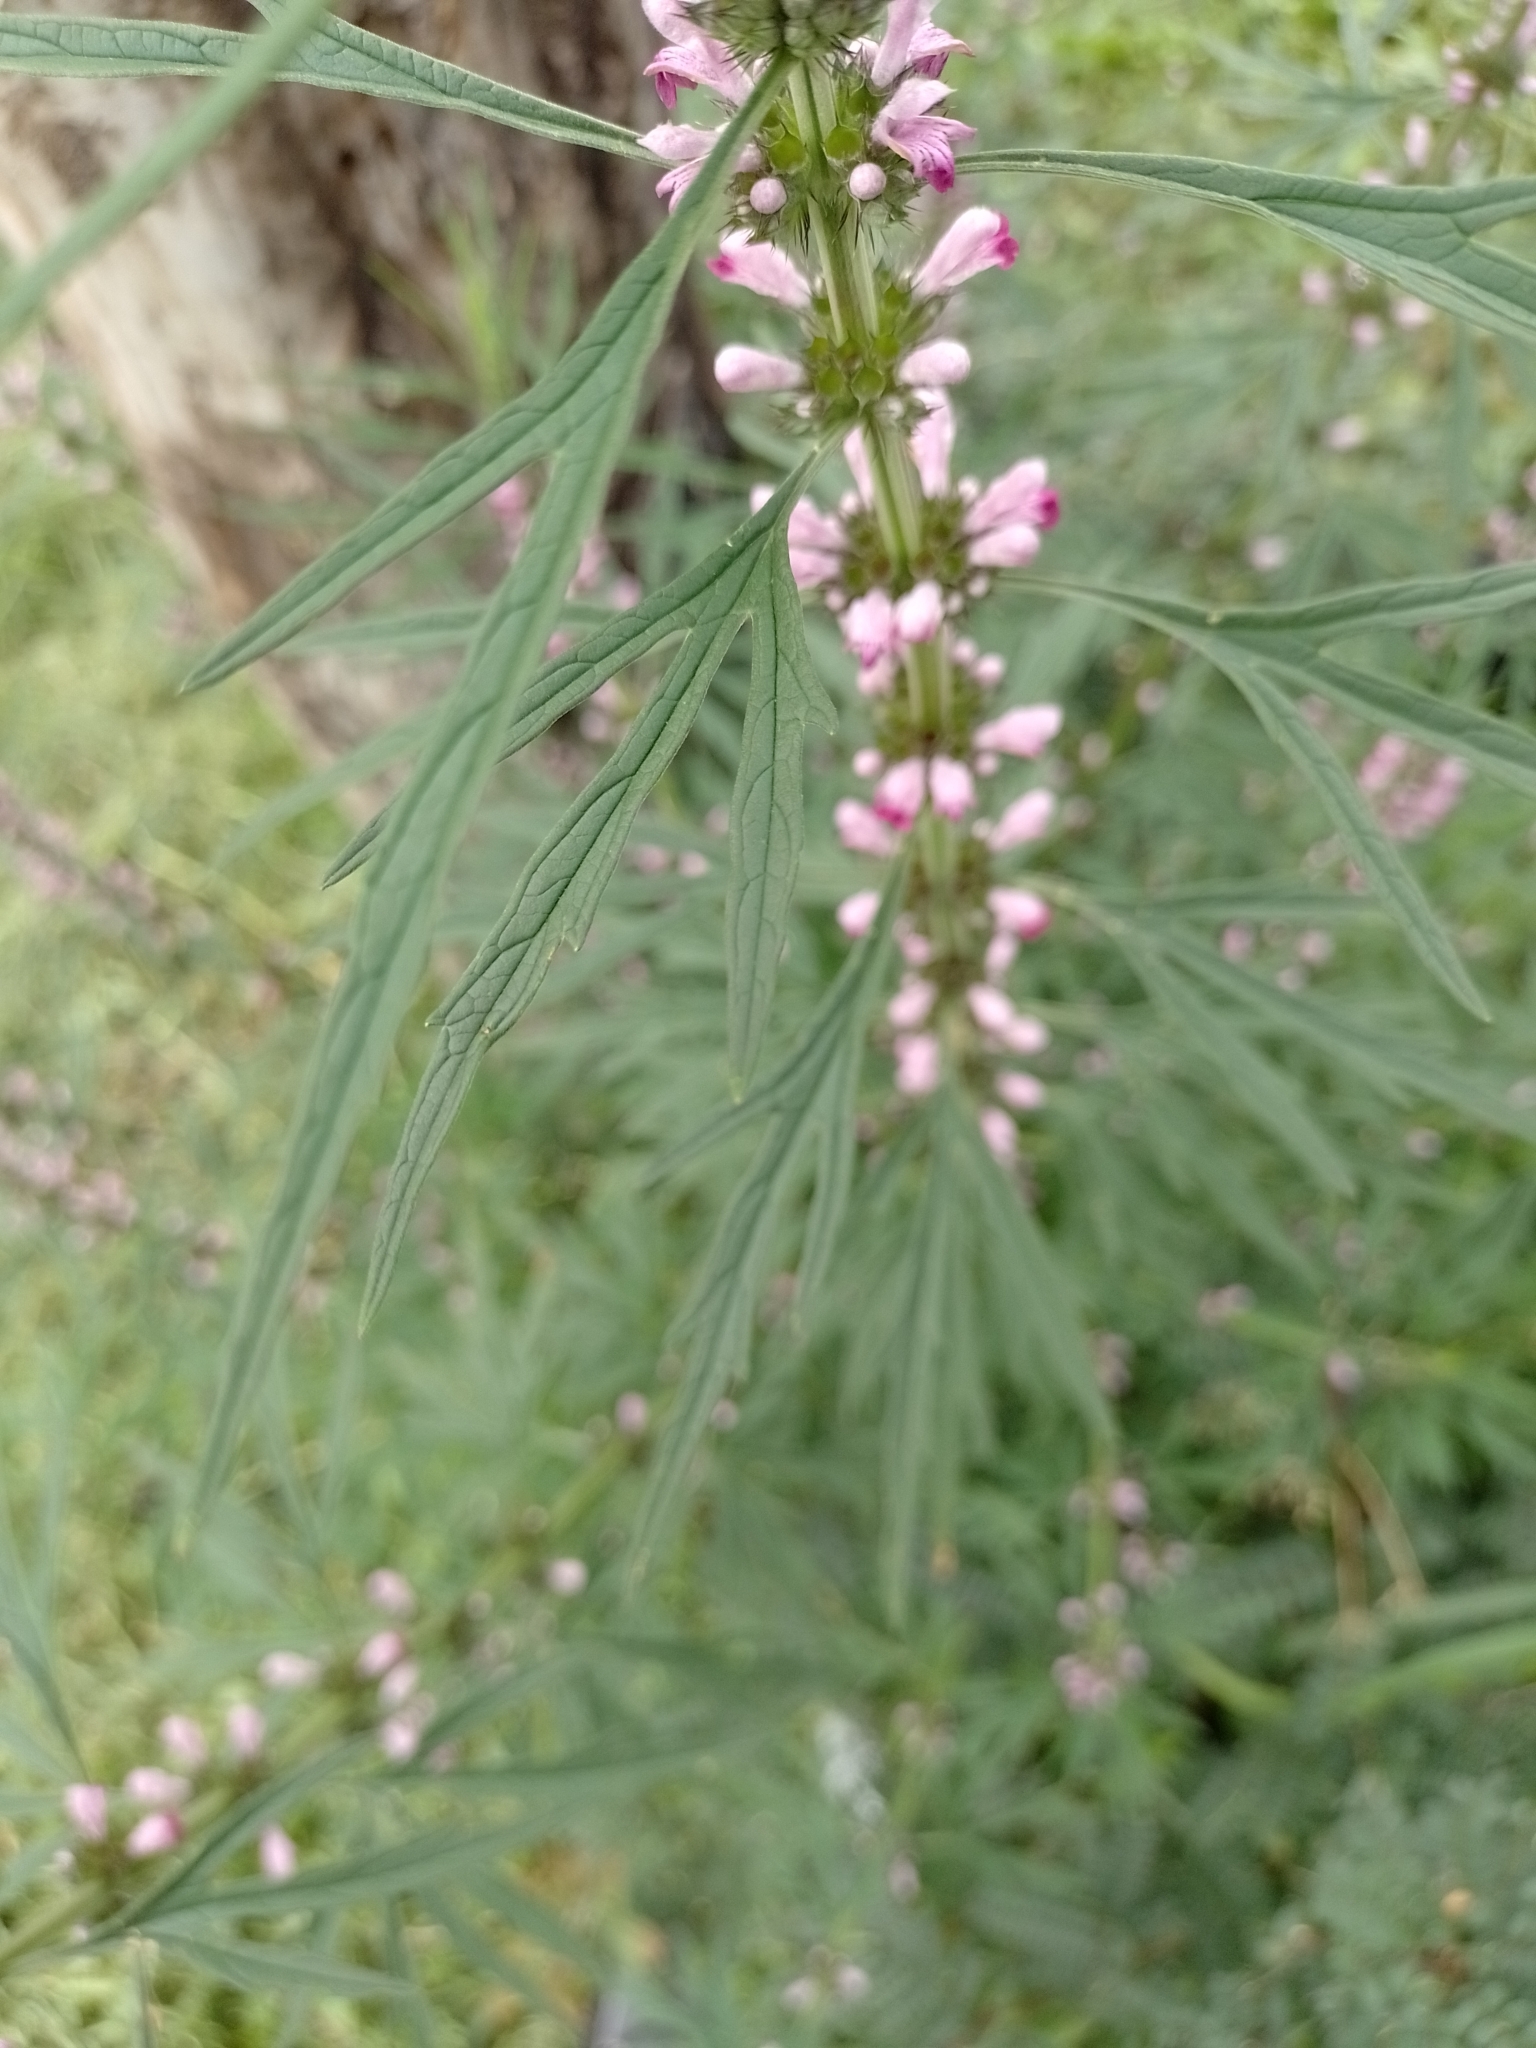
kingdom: Plantae
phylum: Tracheophyta
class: Magnoliopsida
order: Lamiales
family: Lamiaceae
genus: Leonurus
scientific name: Leonurus japonicus
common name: Honeyweed
